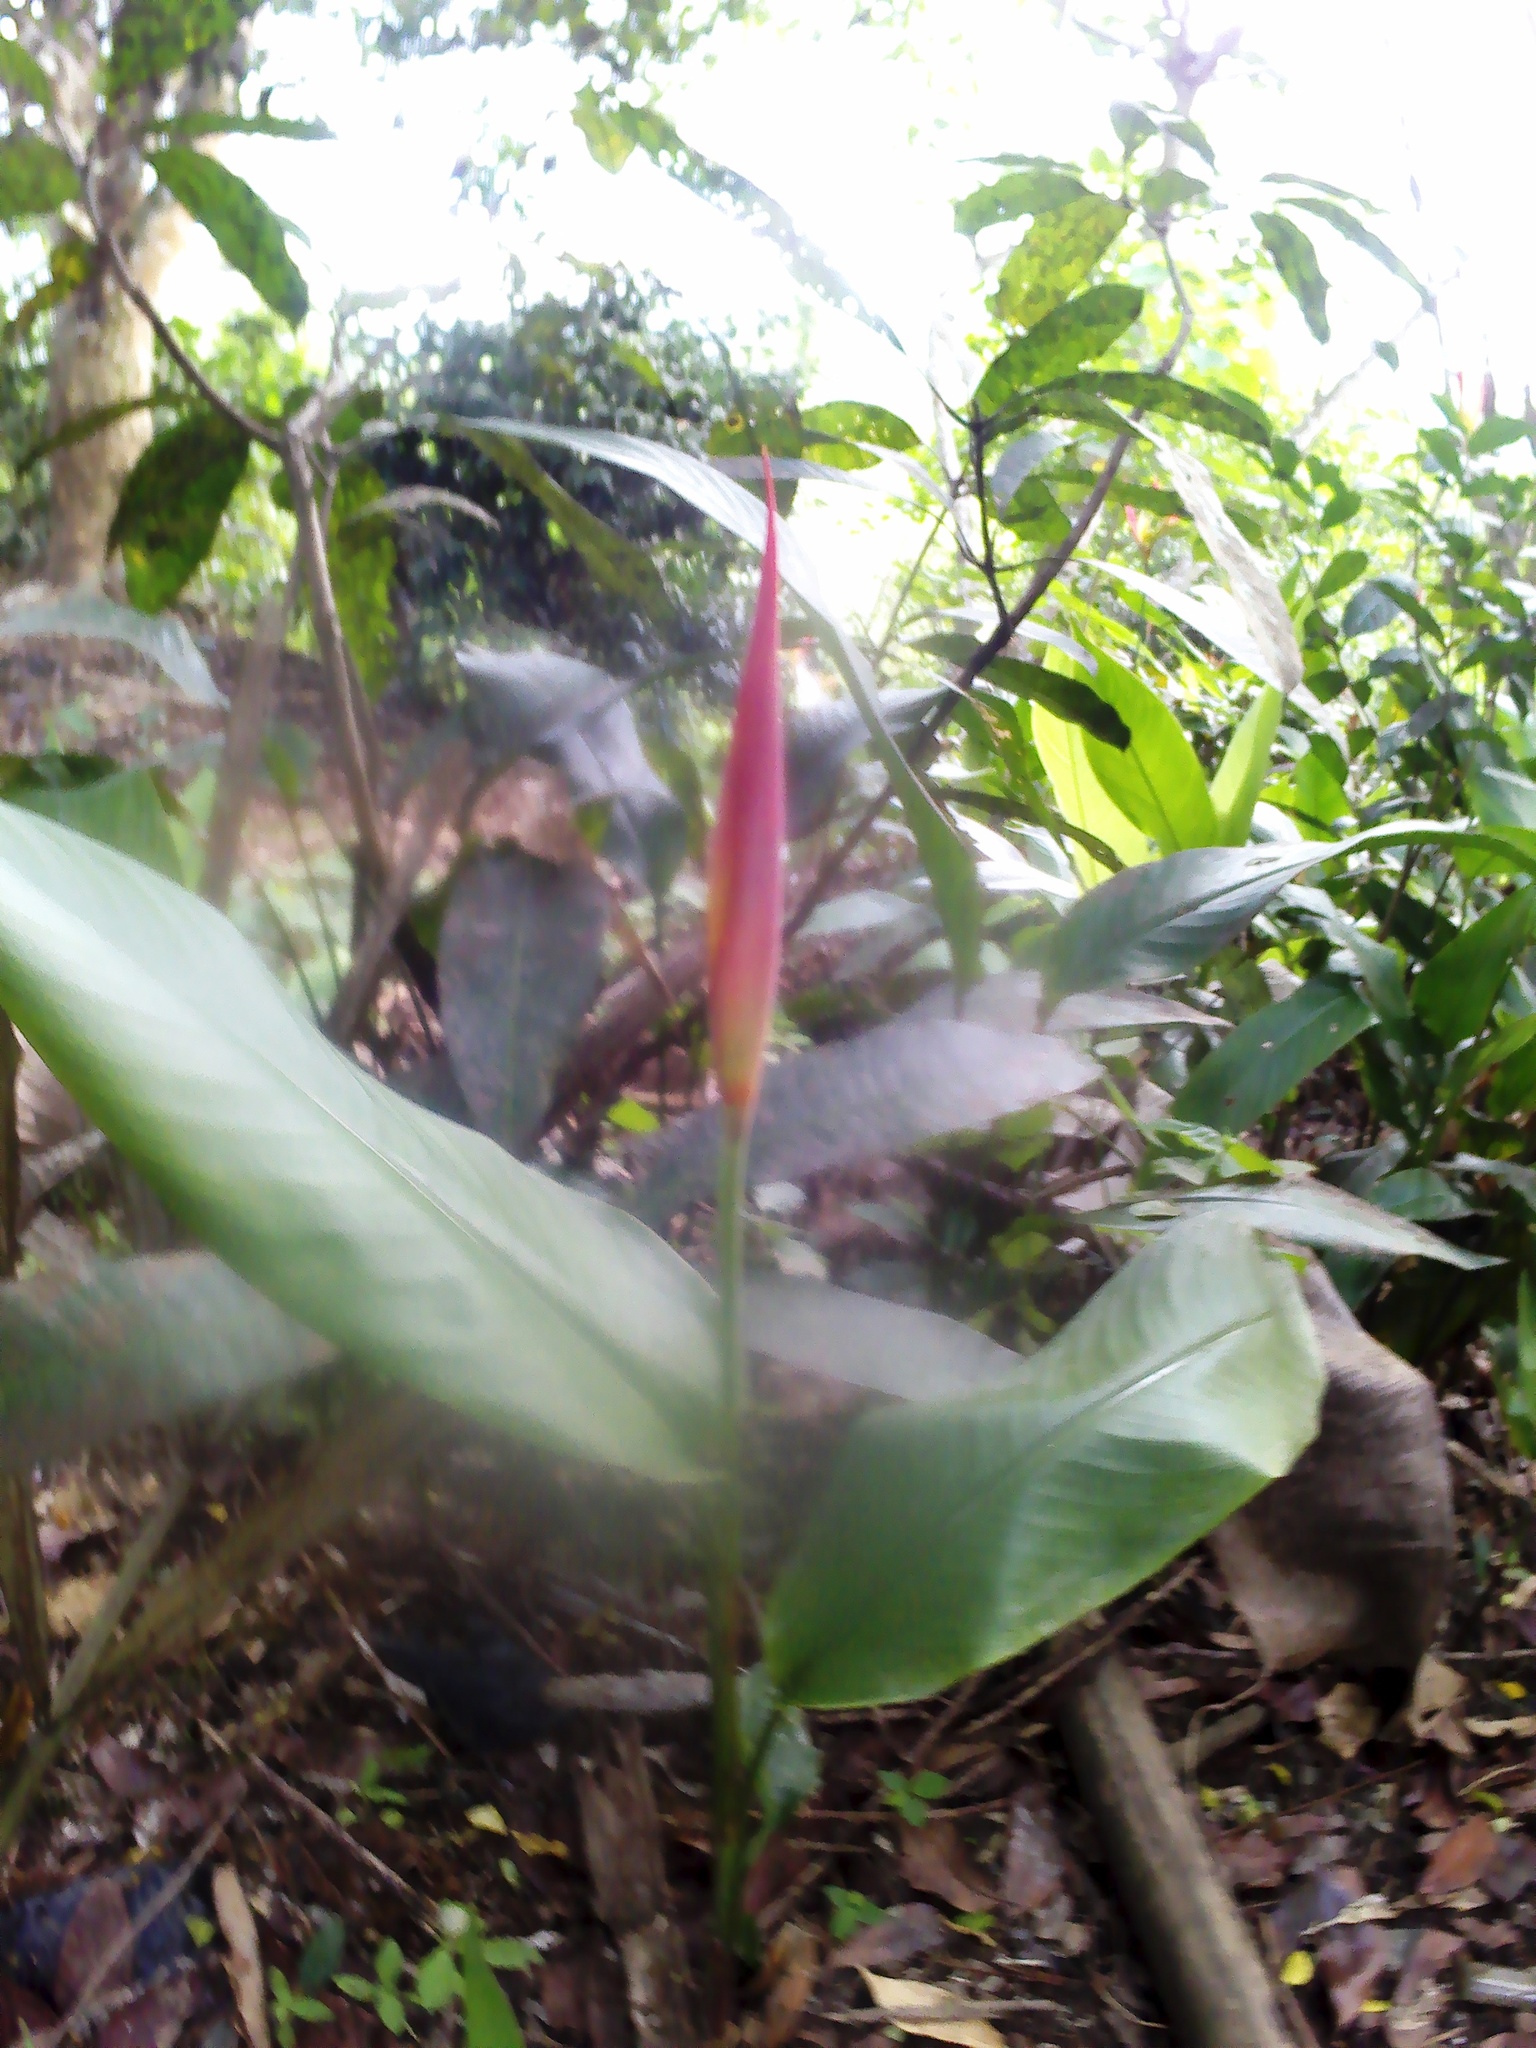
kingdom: Plantae
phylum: Tracheophyta
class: Liliopsida
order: Zingiberales
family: Heliconiaceae
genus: Heliconia
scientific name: Heliconia psittacorum
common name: Parrot's-flower
